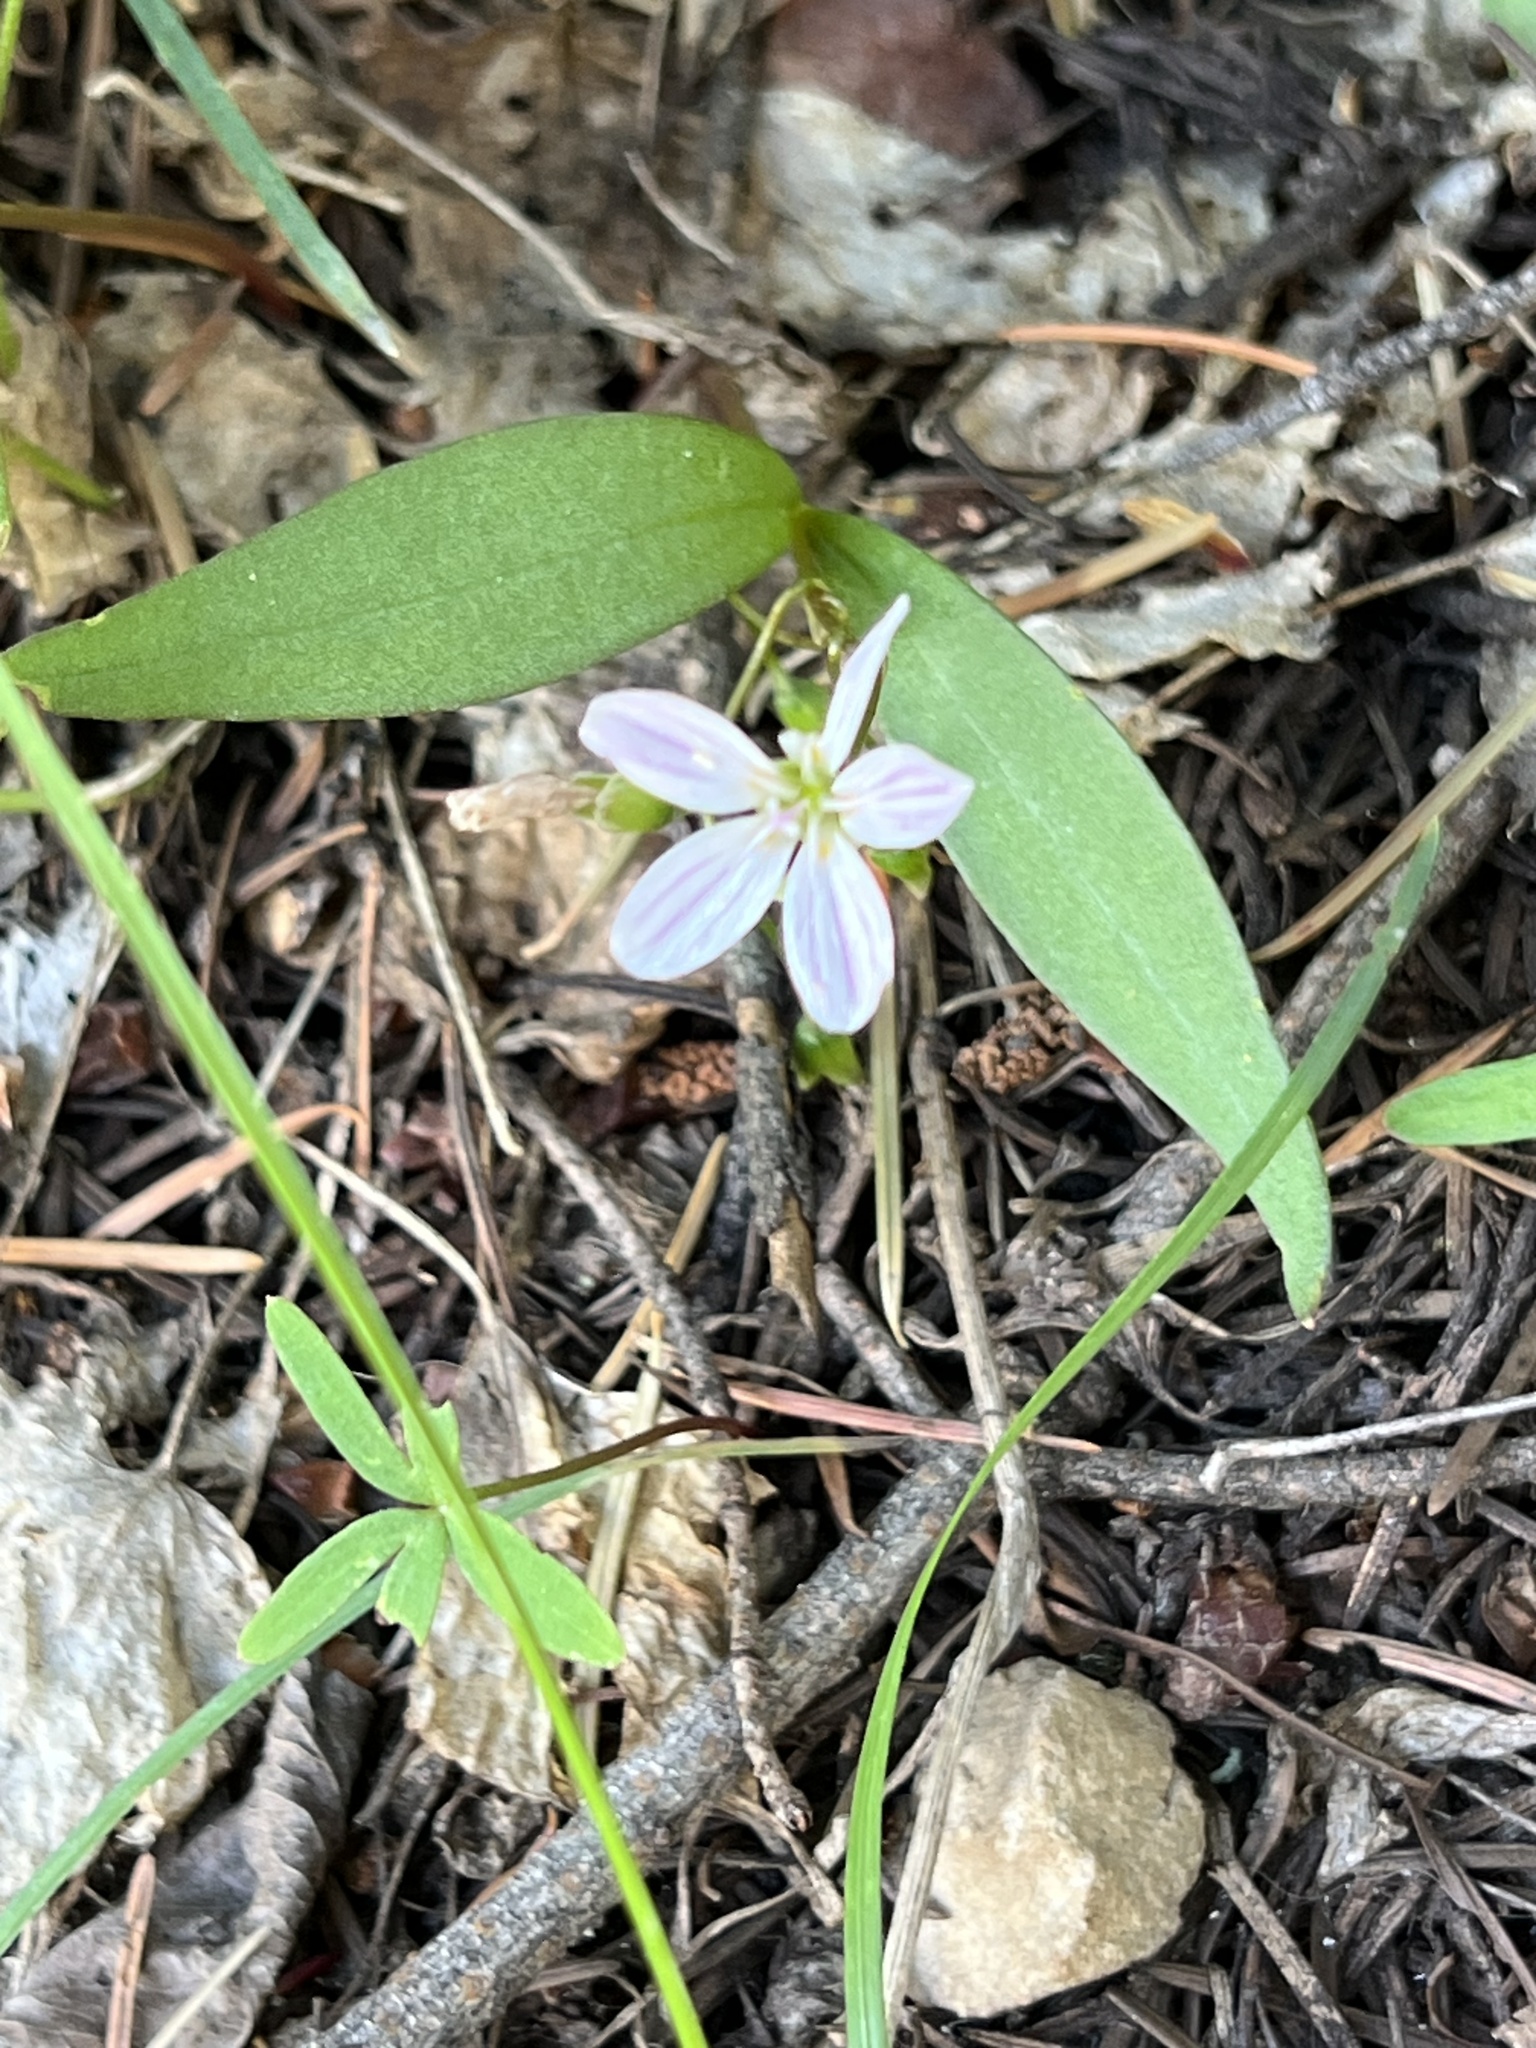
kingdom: Plantae
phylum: Tracheophyta
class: Magnoliopsida
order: Caryophyllales
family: Montiaceae
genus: Claytonia
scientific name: Claytonia lanceolata
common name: Western spring-beauty
